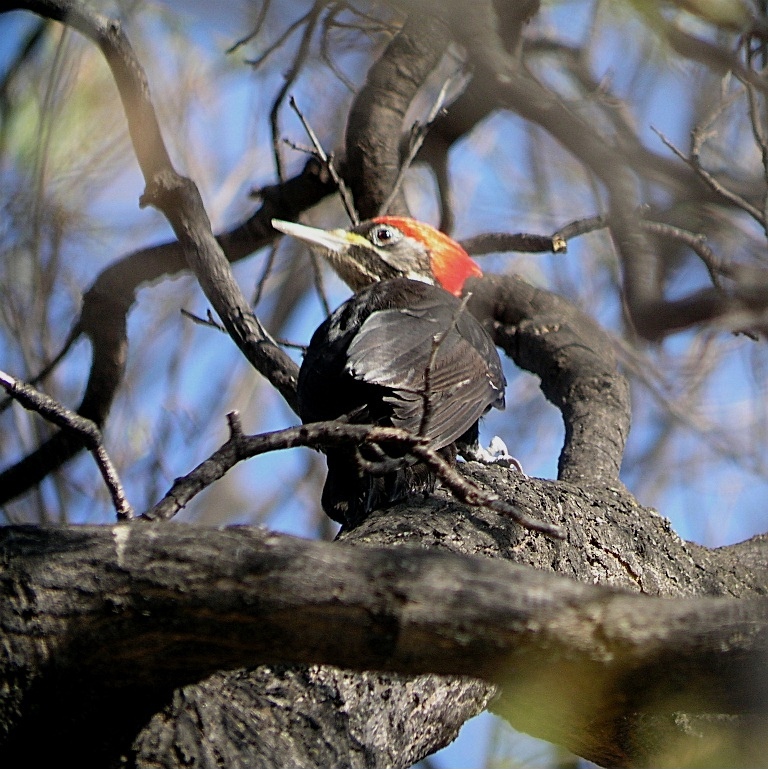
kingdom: Animalia
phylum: Chordata
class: Aves
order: Piciformes
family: Picidae
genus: Dryocopus
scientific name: Dryocopus schulzii
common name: Black-bodied woodpecker
